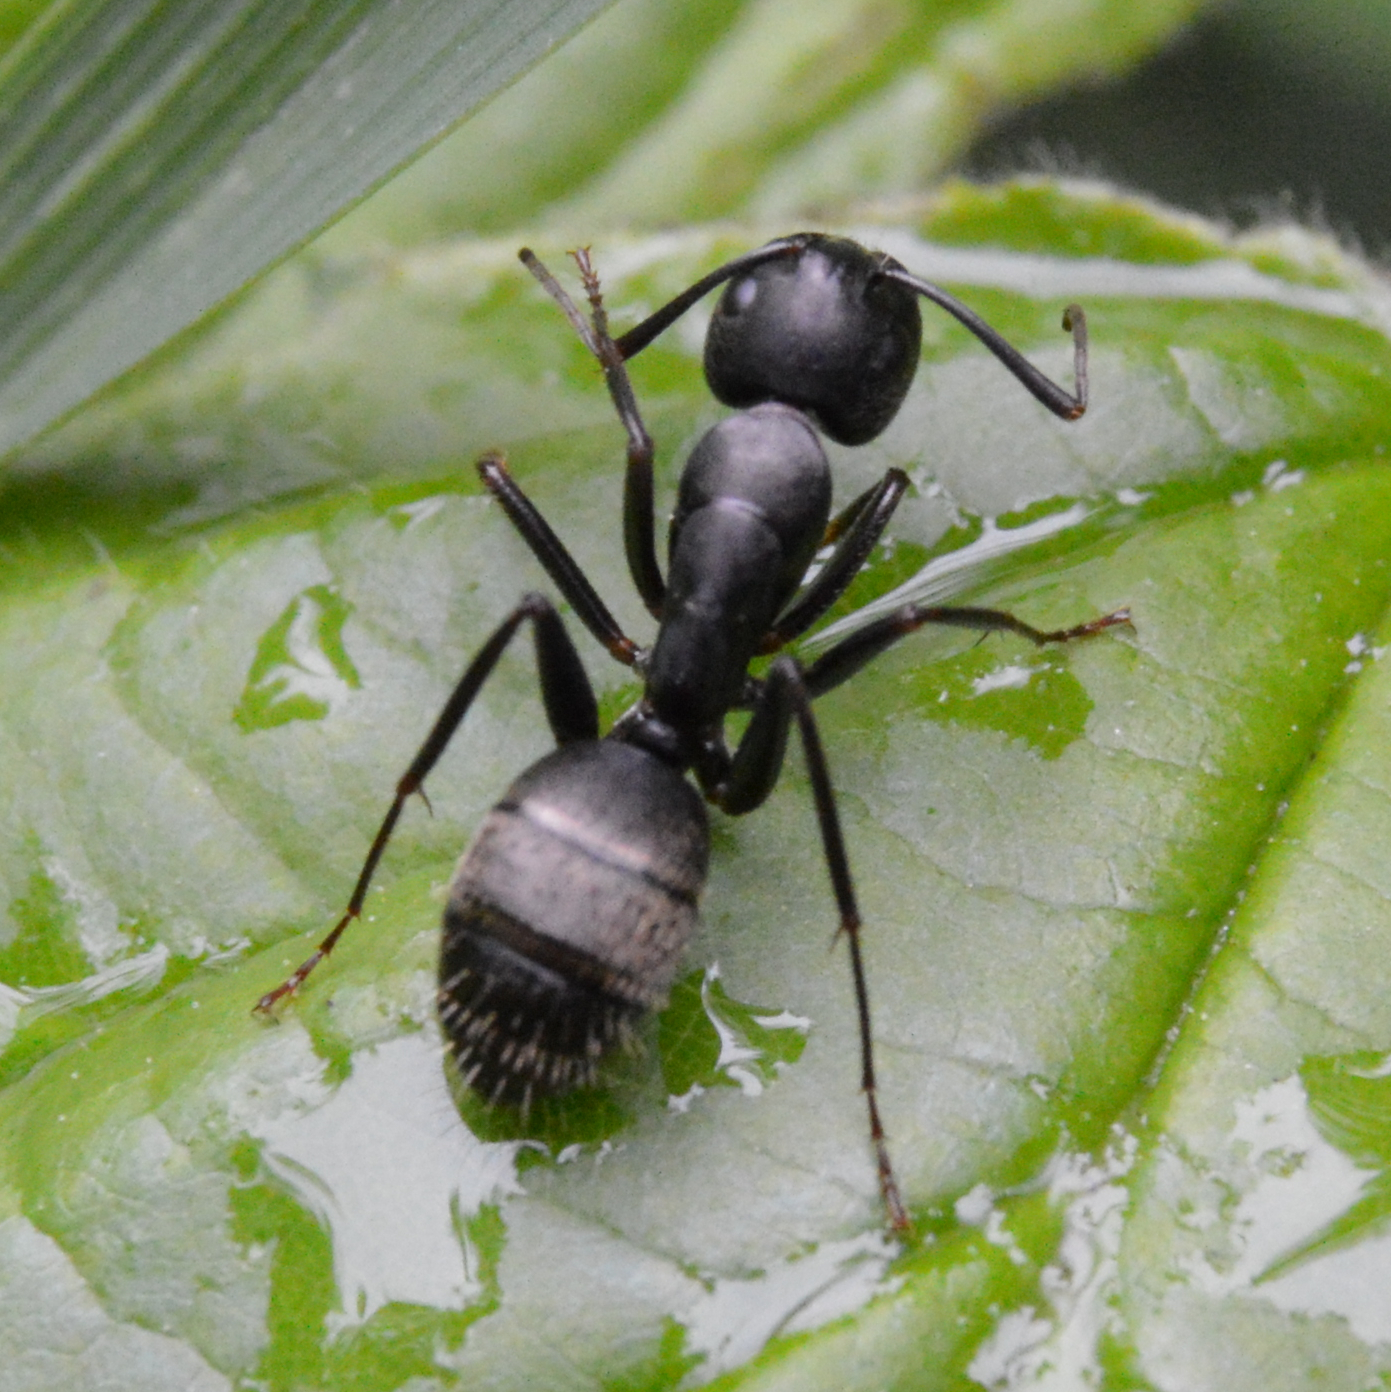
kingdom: Animalia
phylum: Arthropoda
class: Insecta
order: Hymenoptera
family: Formicidae
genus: Camponotus
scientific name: Camponotus pennsylvanicus
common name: Black carpenter ant
